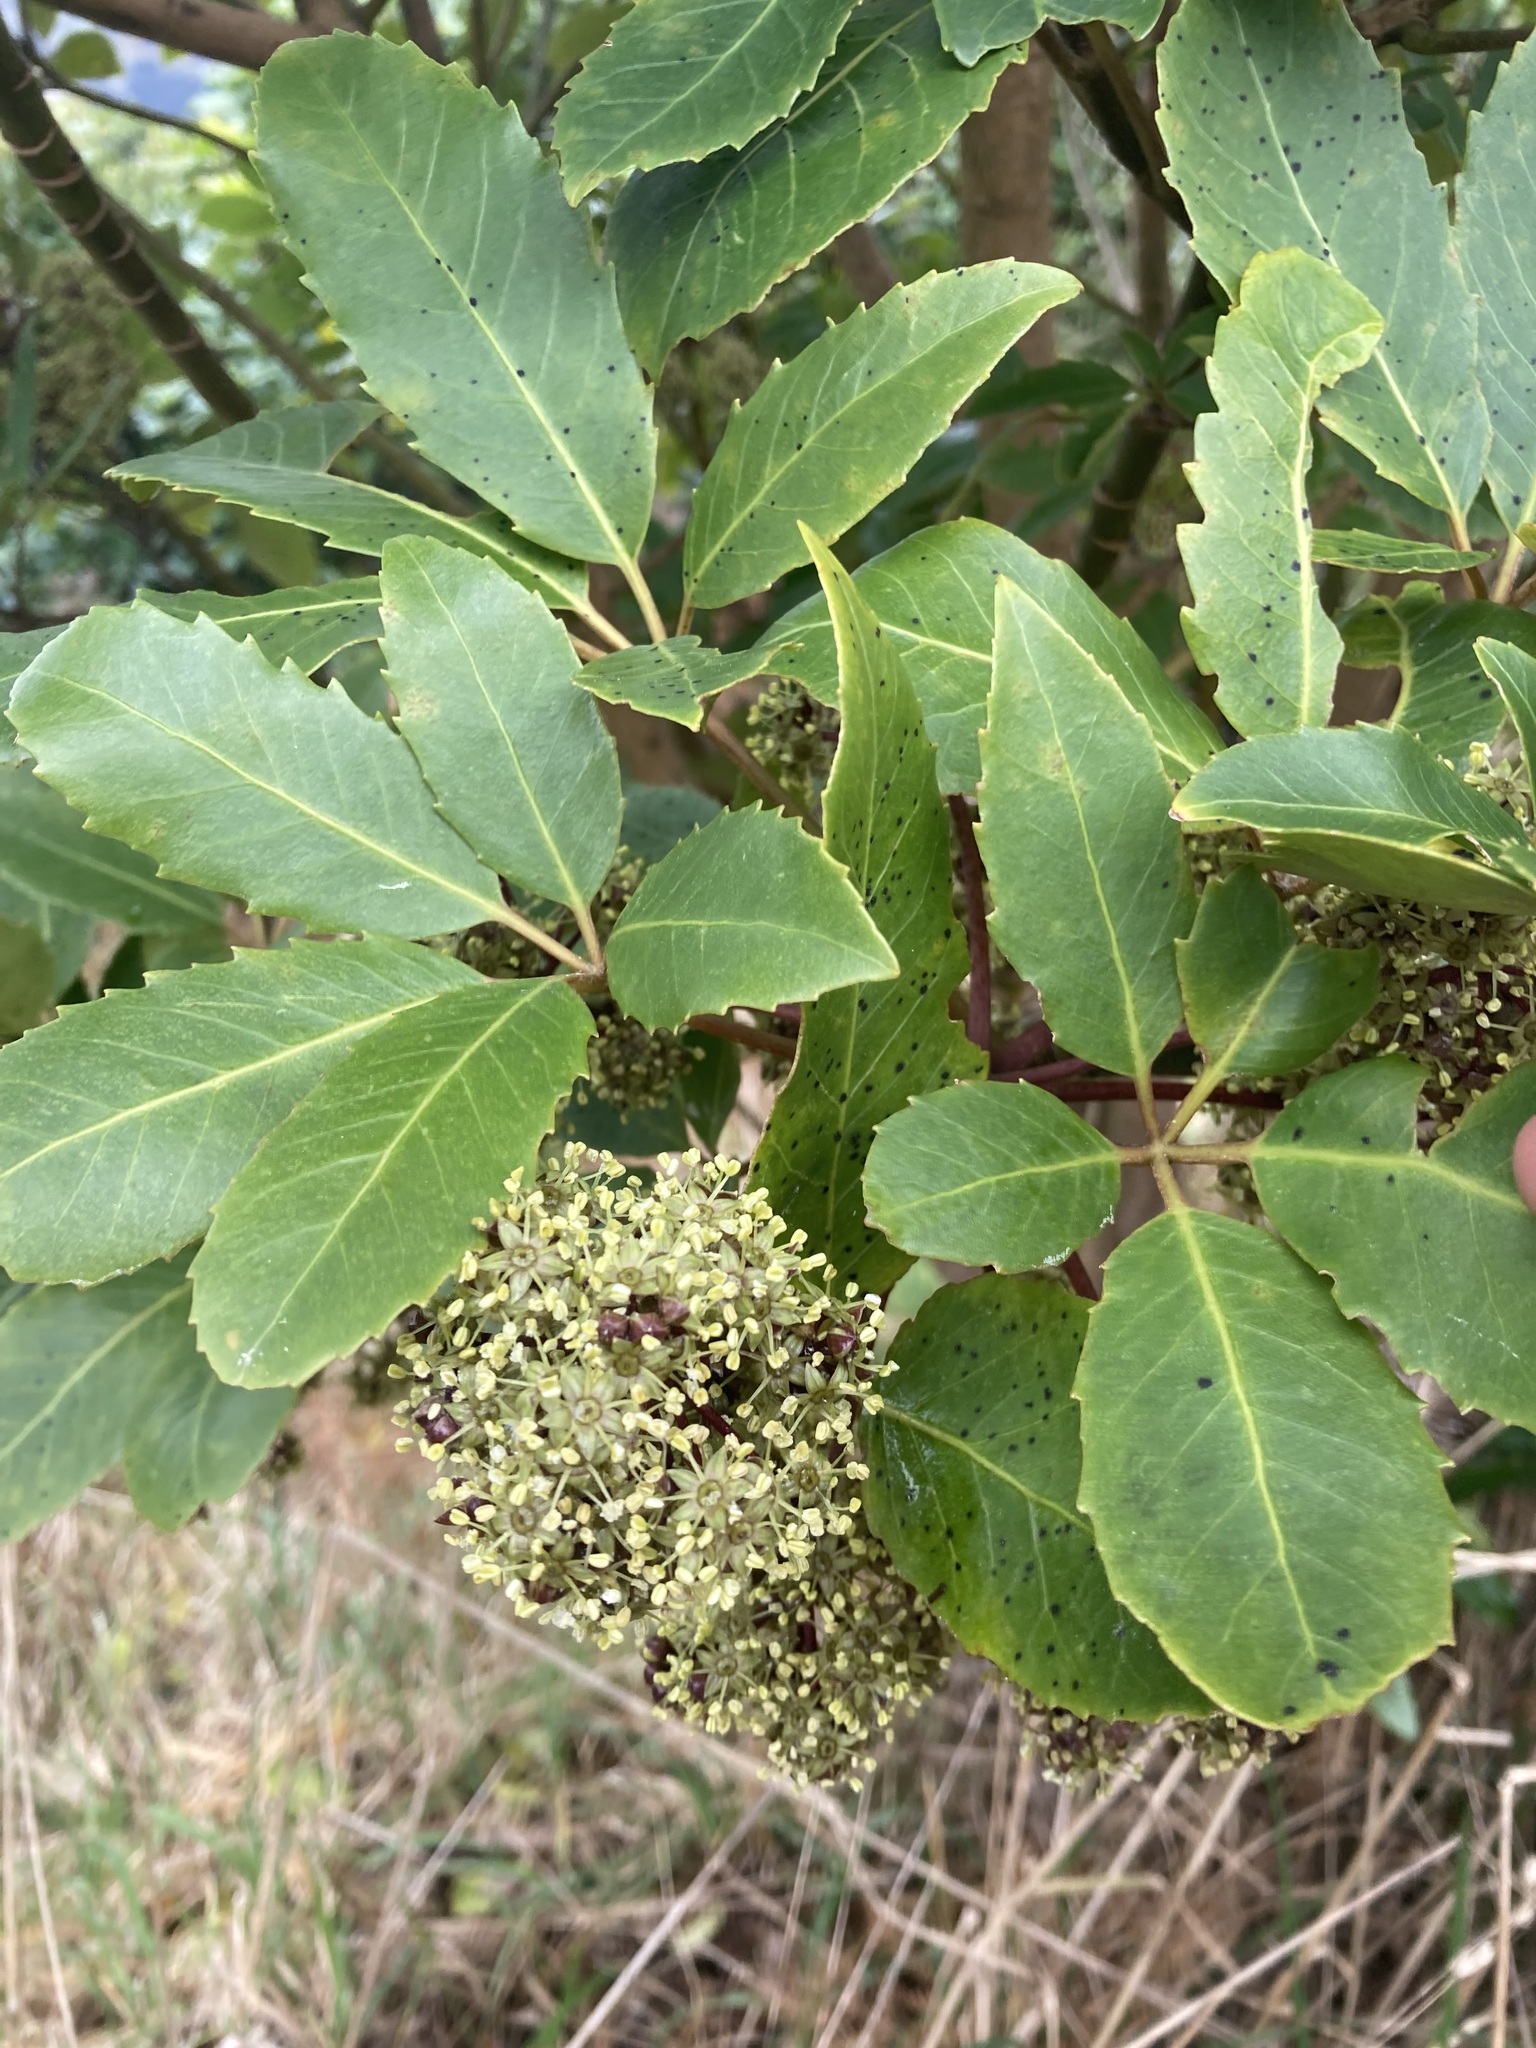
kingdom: Plantae
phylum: Tracheophyta
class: Magnoliopsida
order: Apiales
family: Araliaceae
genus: Neopanax
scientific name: Neopanax arboreus
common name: Five-fingers
